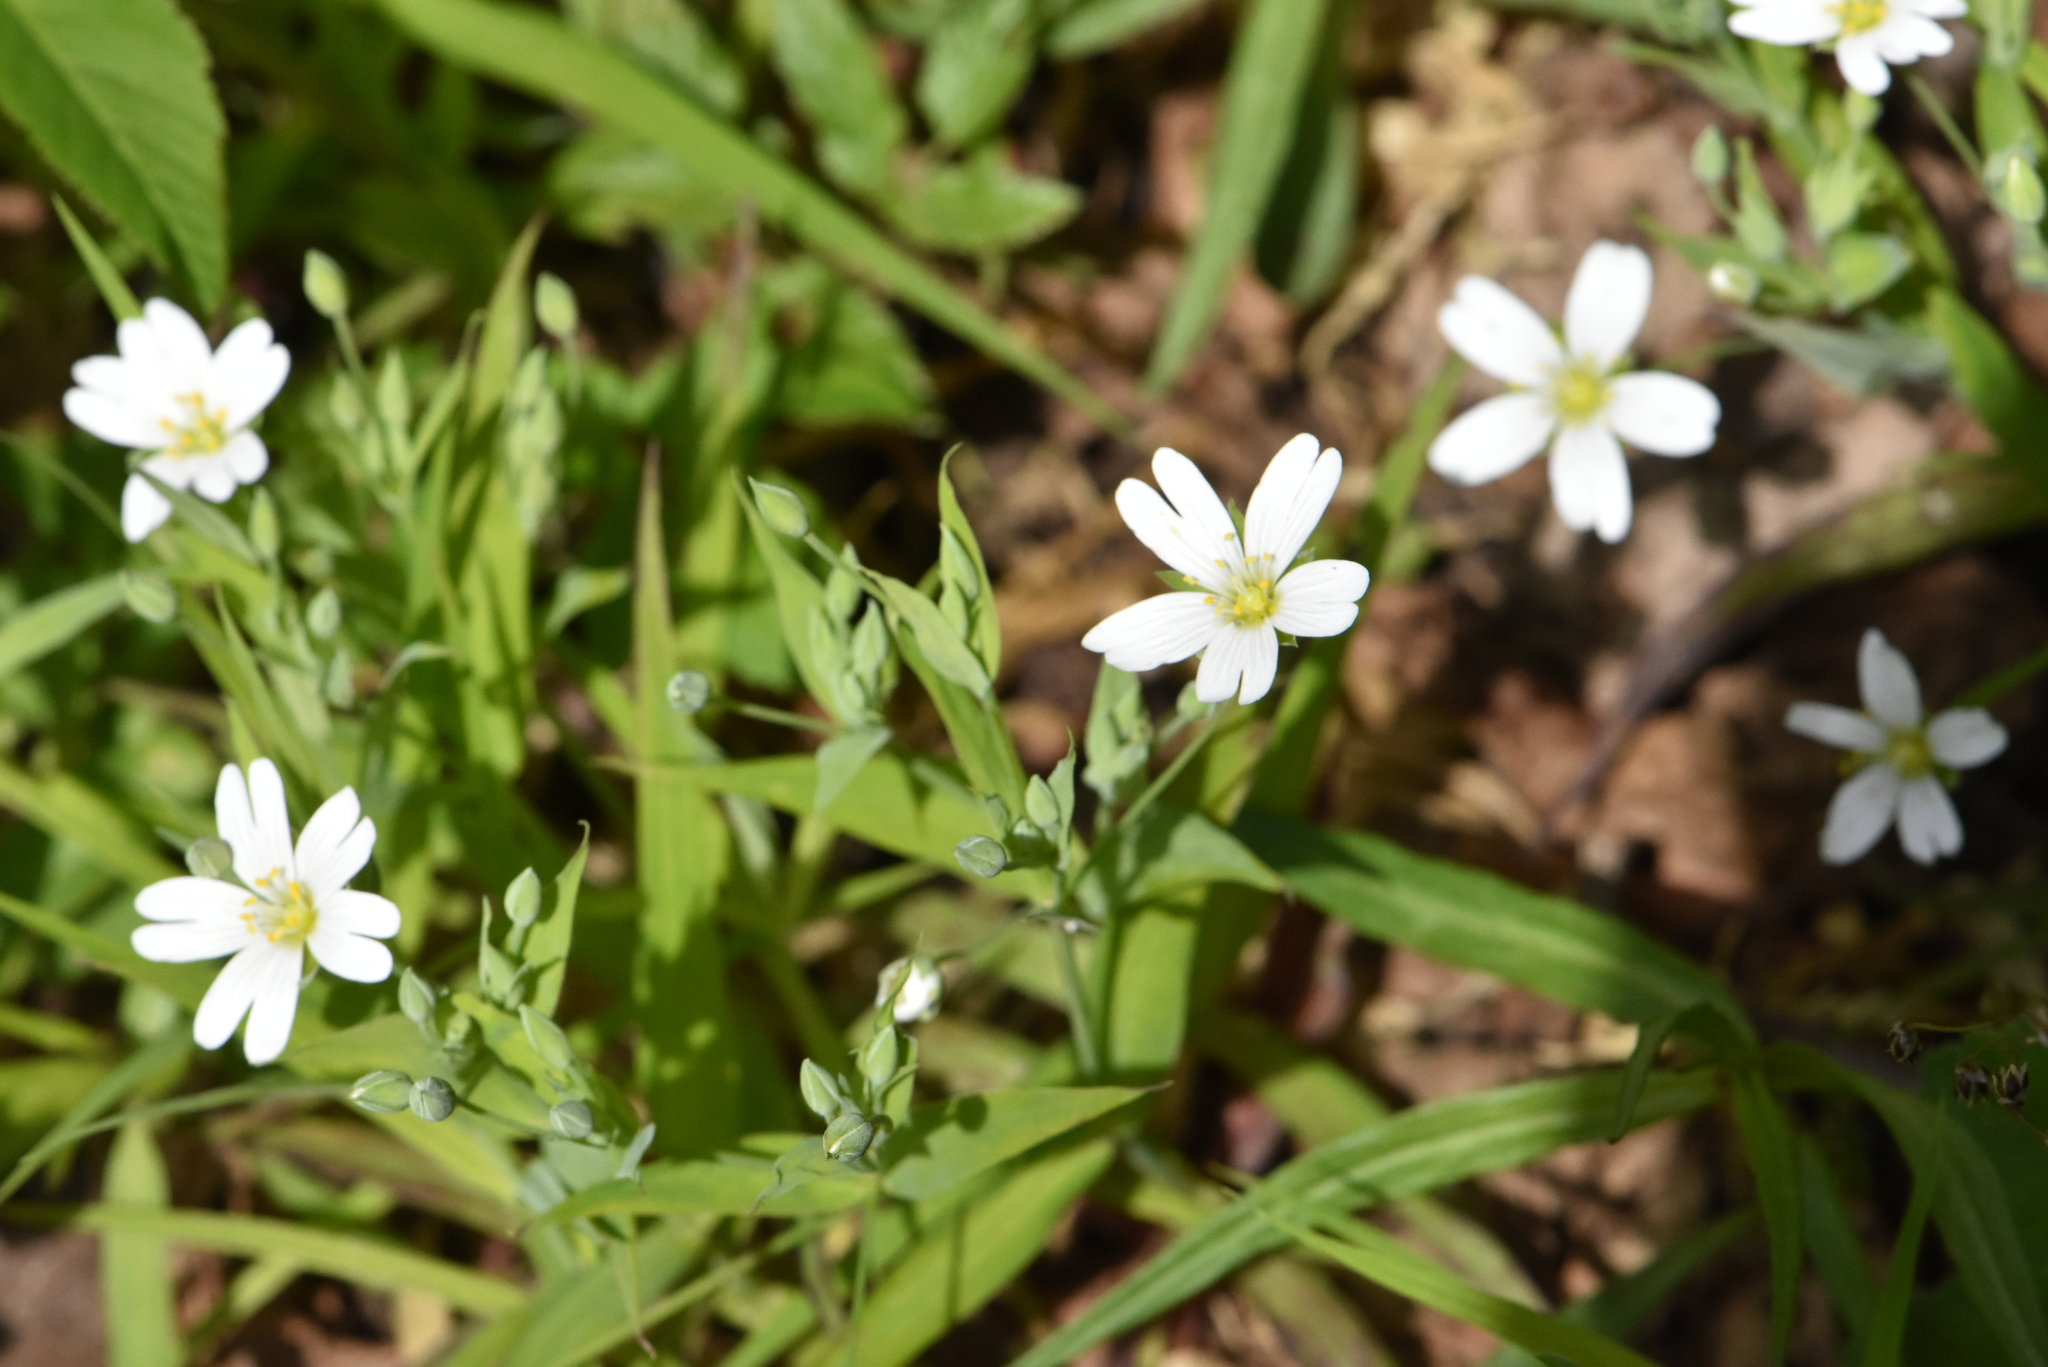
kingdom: Plantae
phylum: Tracheophyta
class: Magnoliopsida
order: Caryophyllales
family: Caryophyllaceae
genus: Rabelera
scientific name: Rabelera holostea
